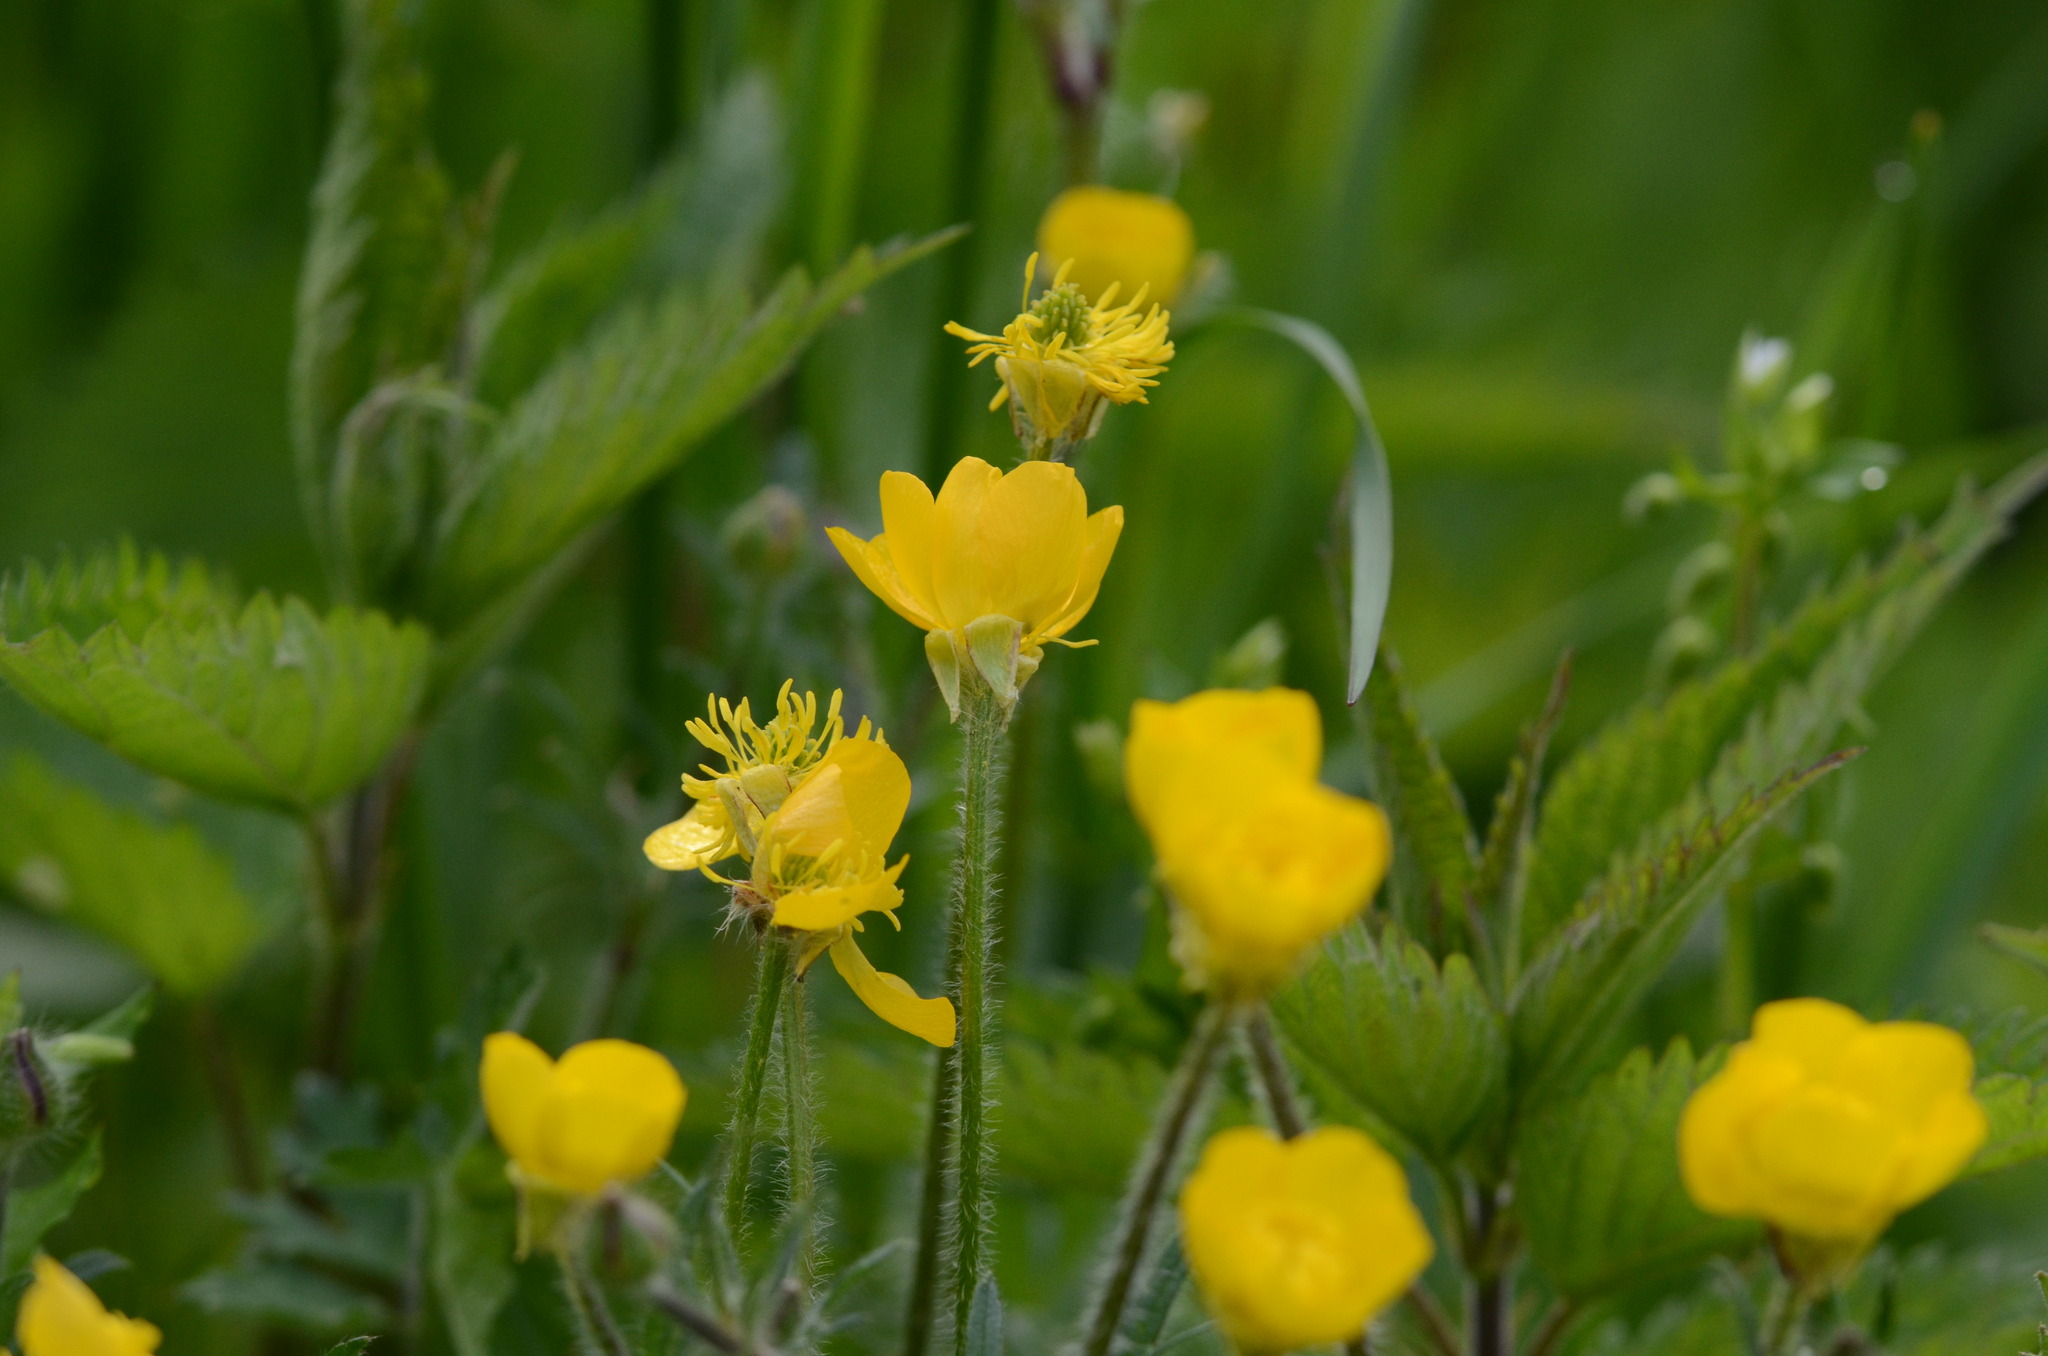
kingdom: Plantae
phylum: Tracheophyta
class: Magnoliopsida
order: Ranunculales
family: Ranunculaceae
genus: Ranunculus
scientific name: Ranunculus bulbosus
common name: Bulbous buttercup
